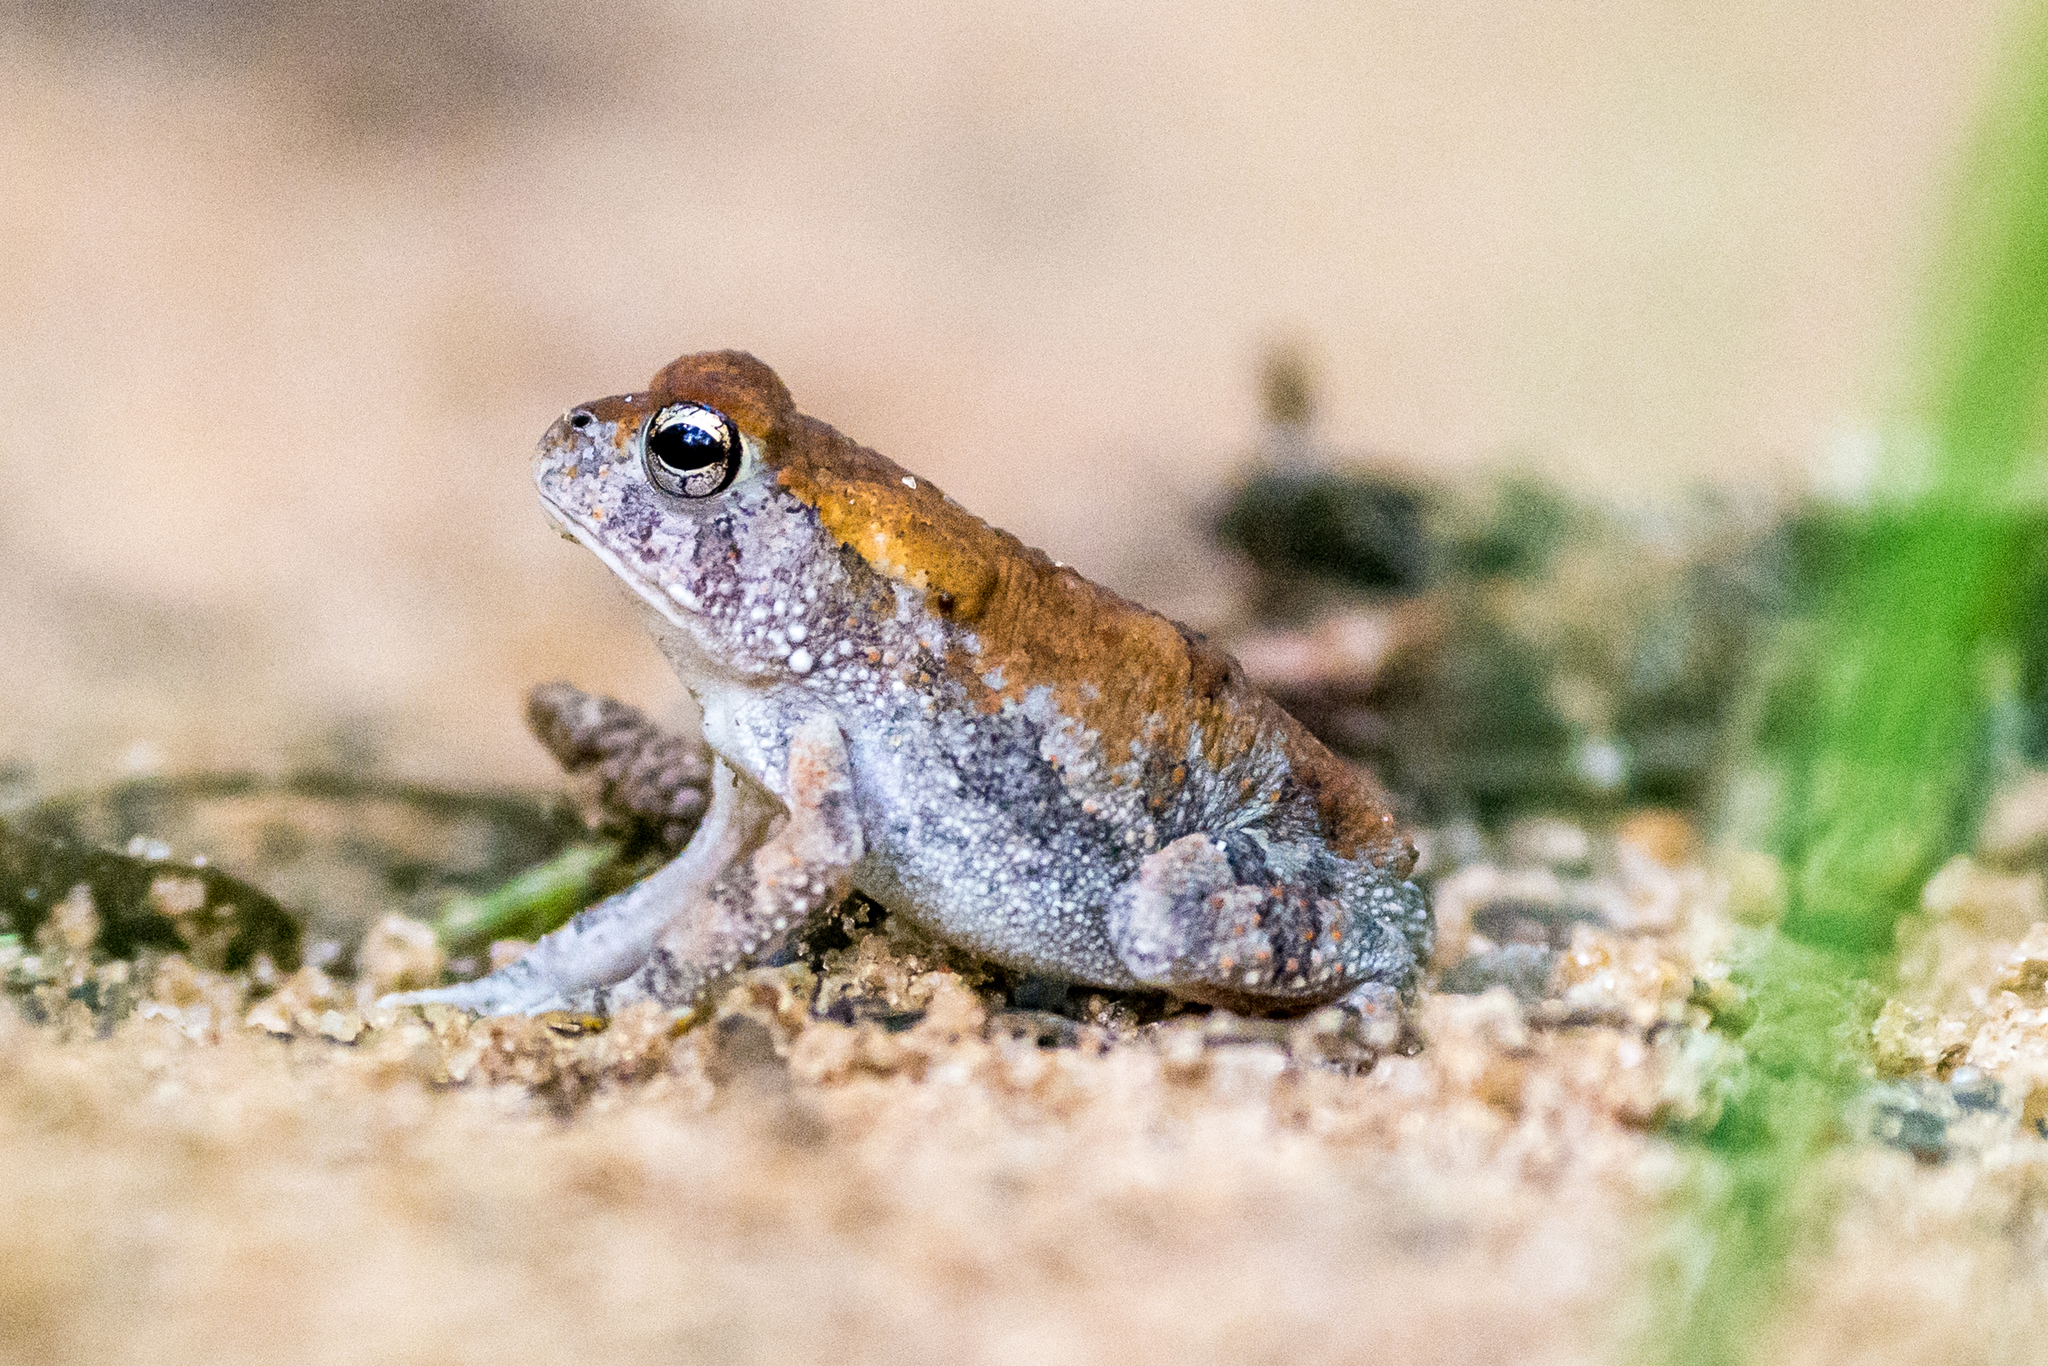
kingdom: Animalia
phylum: Chordata
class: Amphibia
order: Anura
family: Bufonidae
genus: Anaxyrus
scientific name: Anaxyrus terrestris
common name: Southern toad
